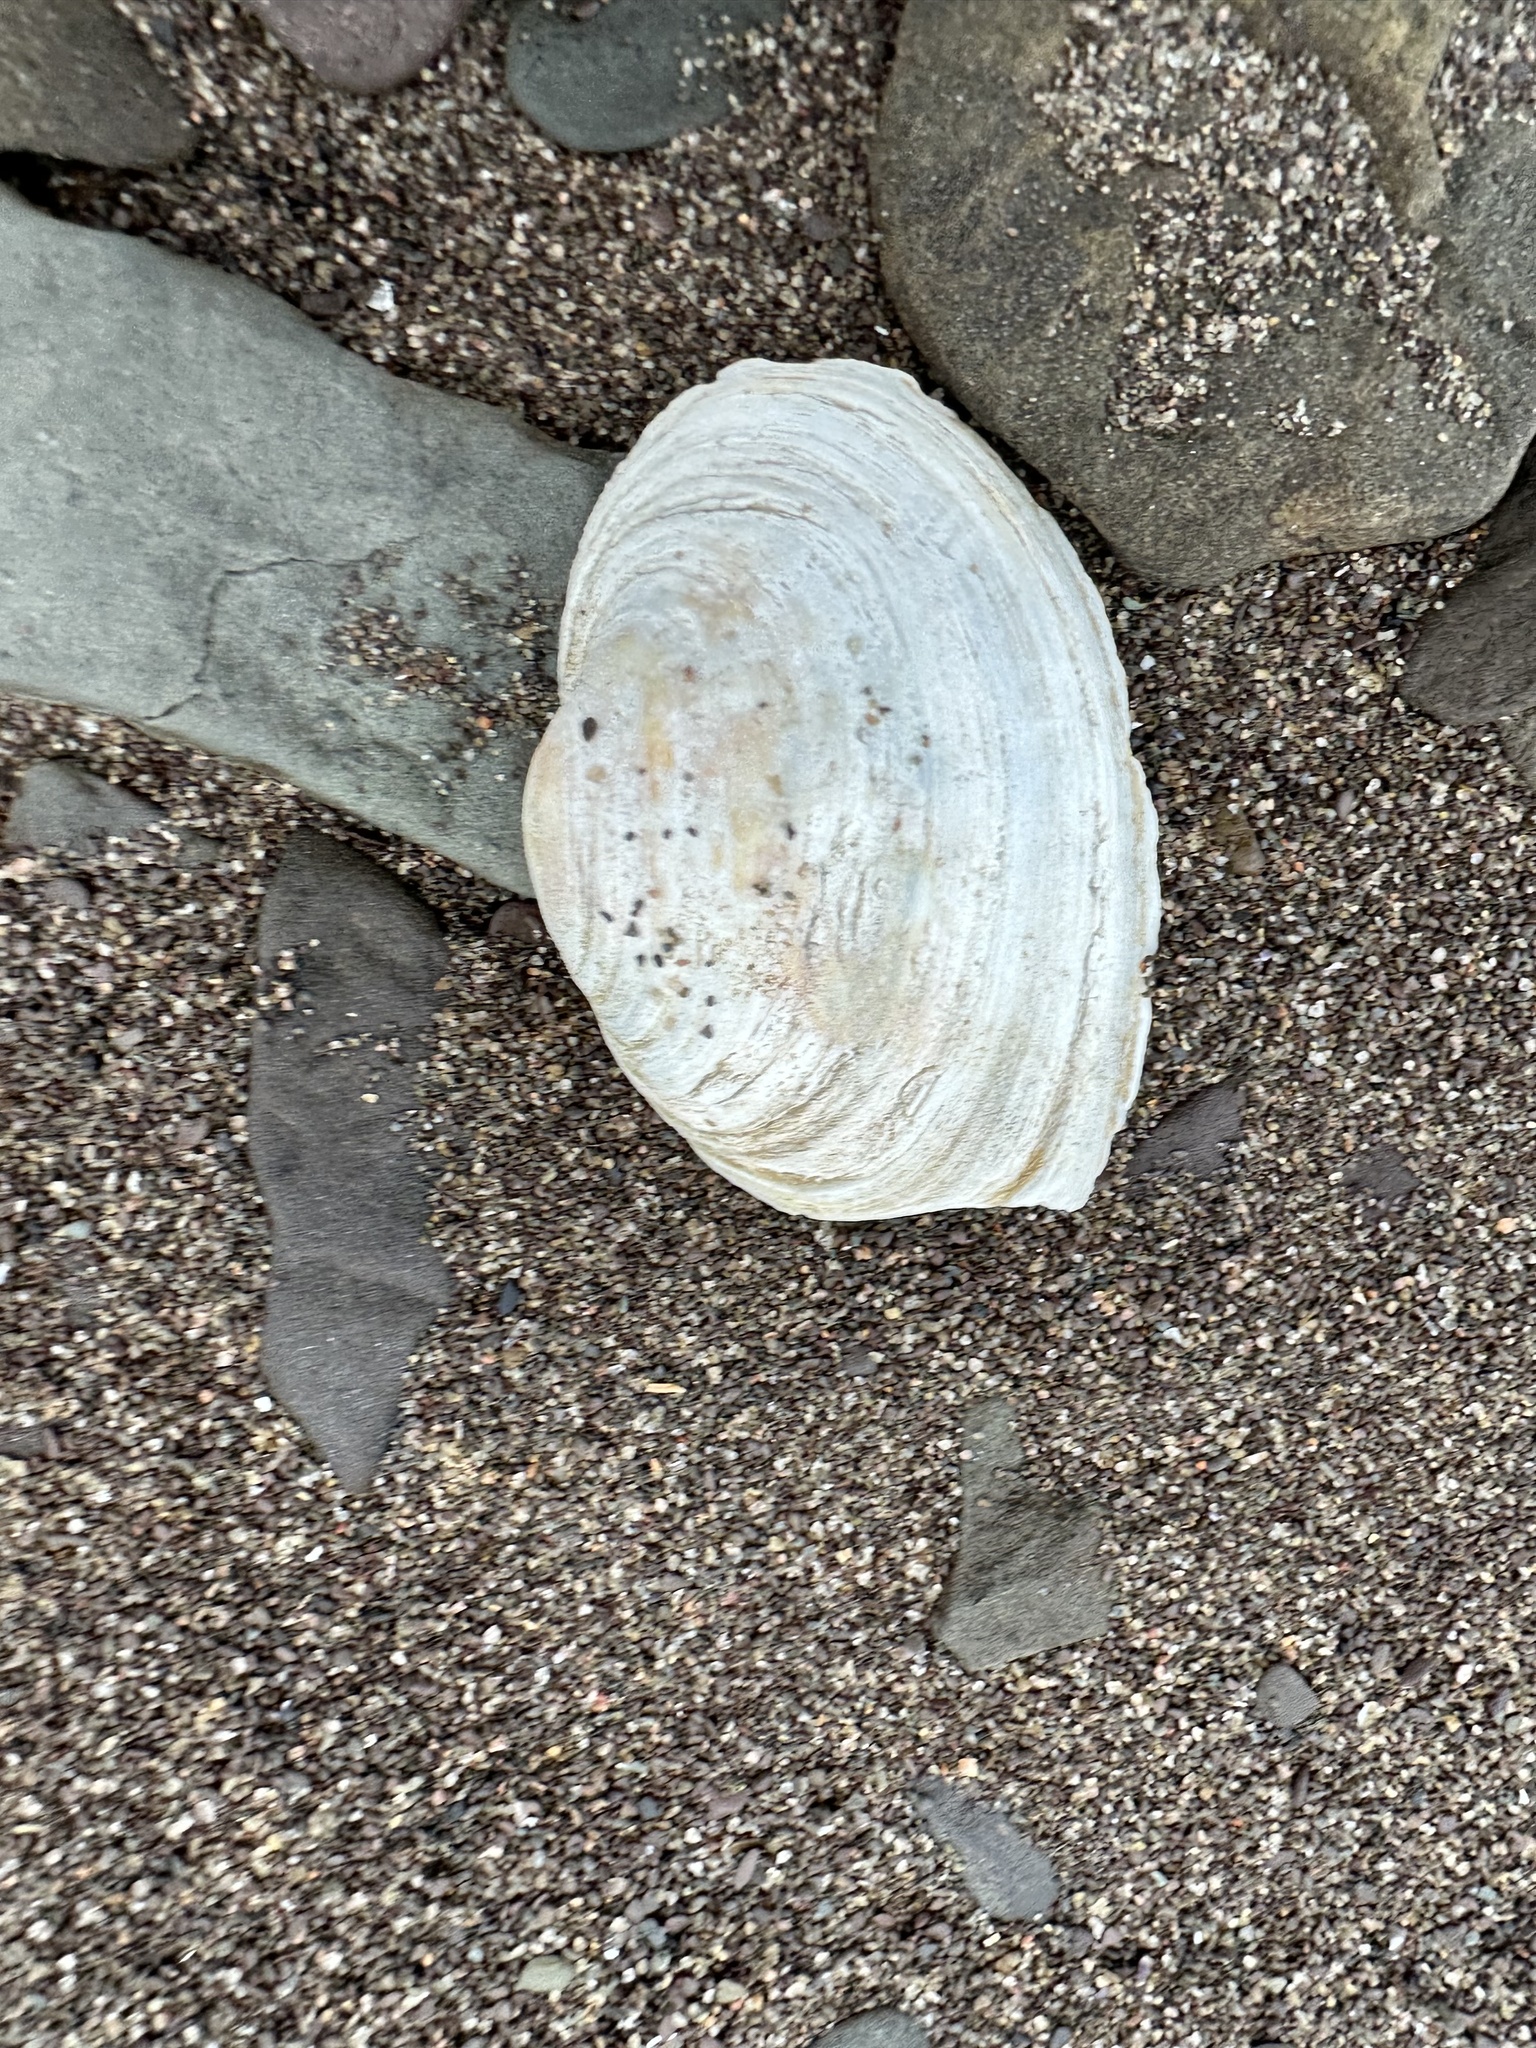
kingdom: Animalia
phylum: Mollusca
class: Bivalvia
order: Myida
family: Myidae
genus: Mya
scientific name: Mya arenaria
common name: Soft-shelled clam
